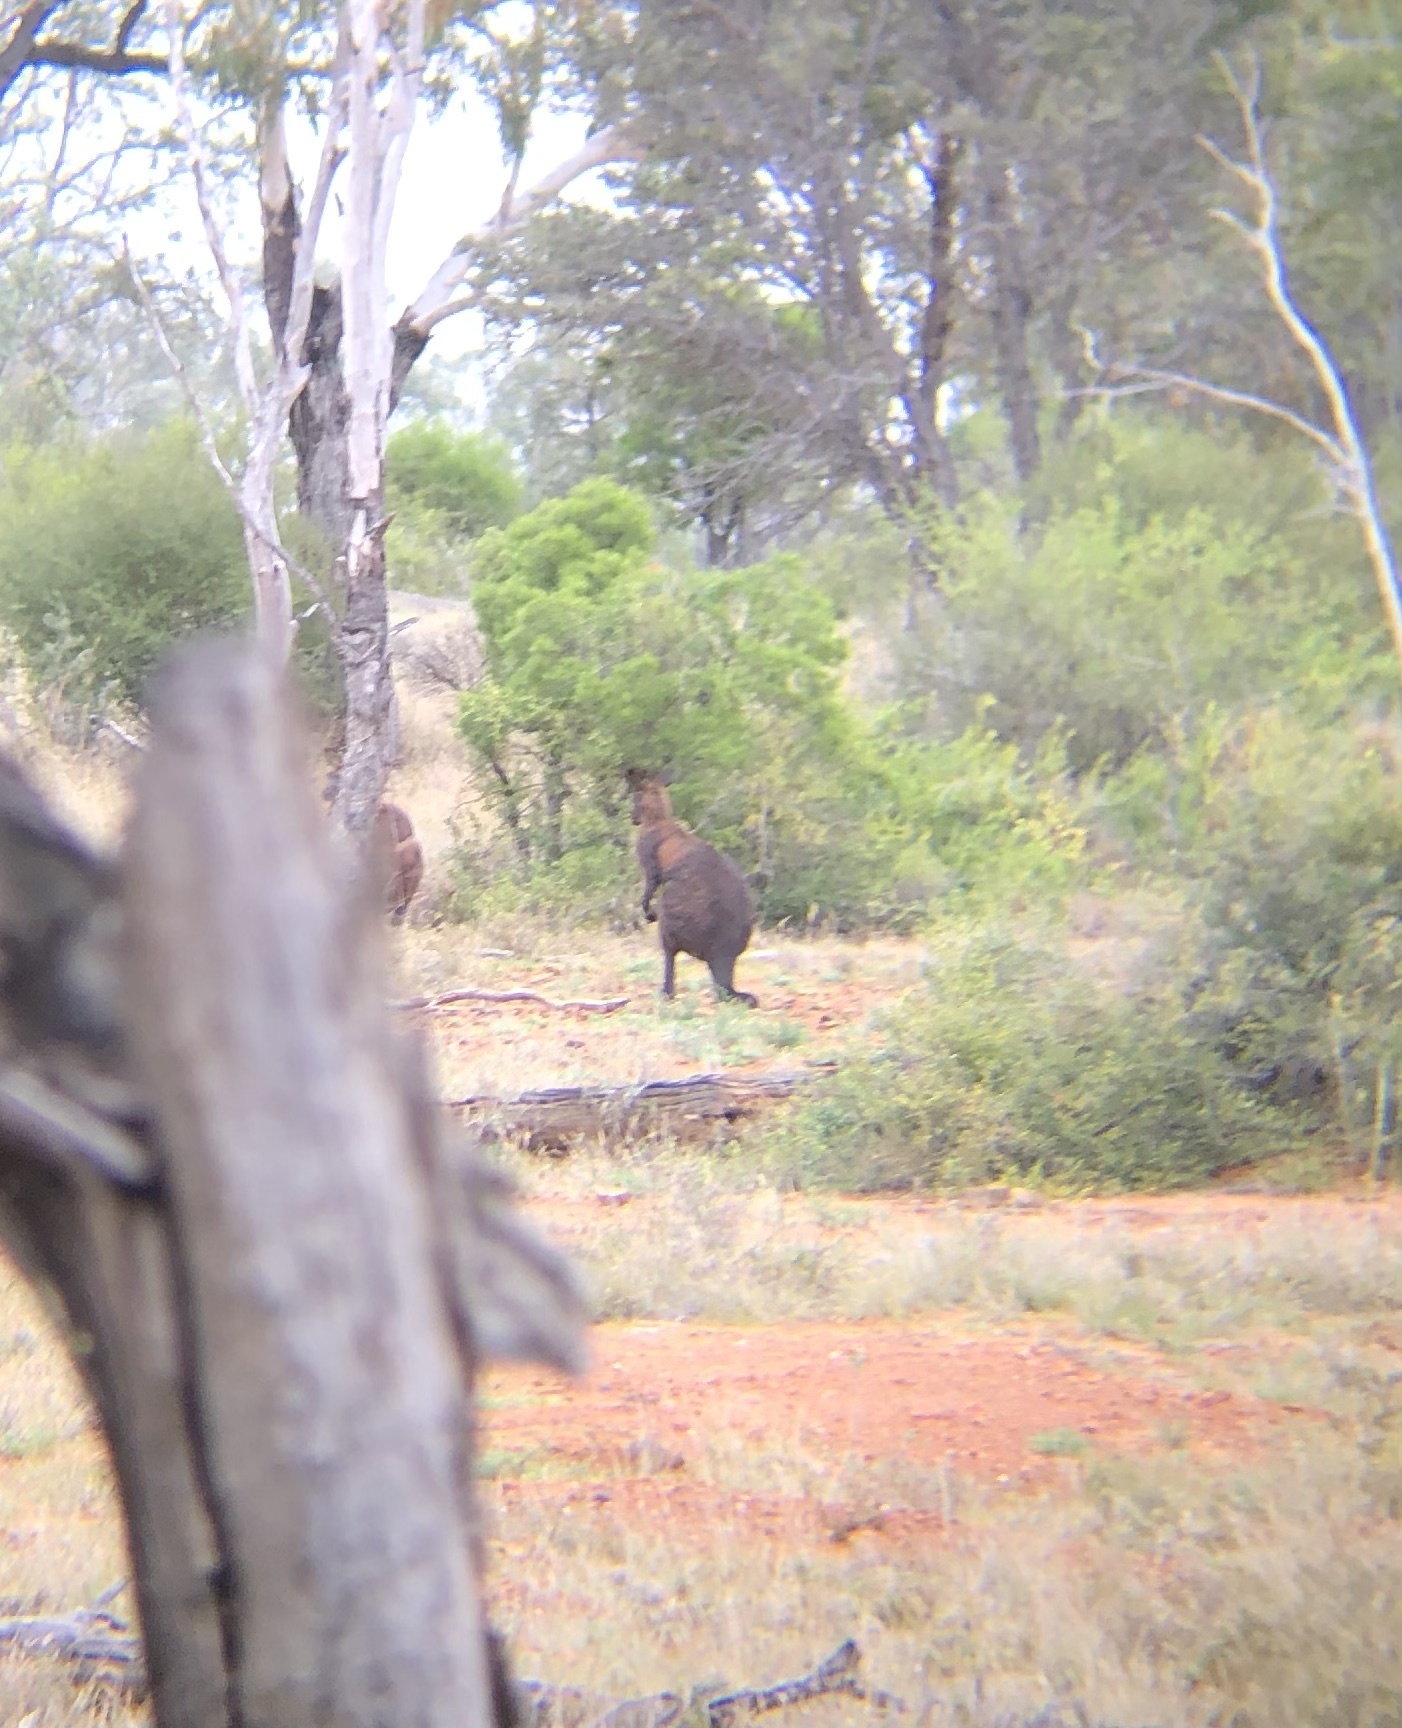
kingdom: Animalia
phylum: Chordata
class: Mammalia
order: Diprotodontia
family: Macropodidae
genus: Macropus
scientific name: Macropus robustus
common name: Eastern wallaroo
